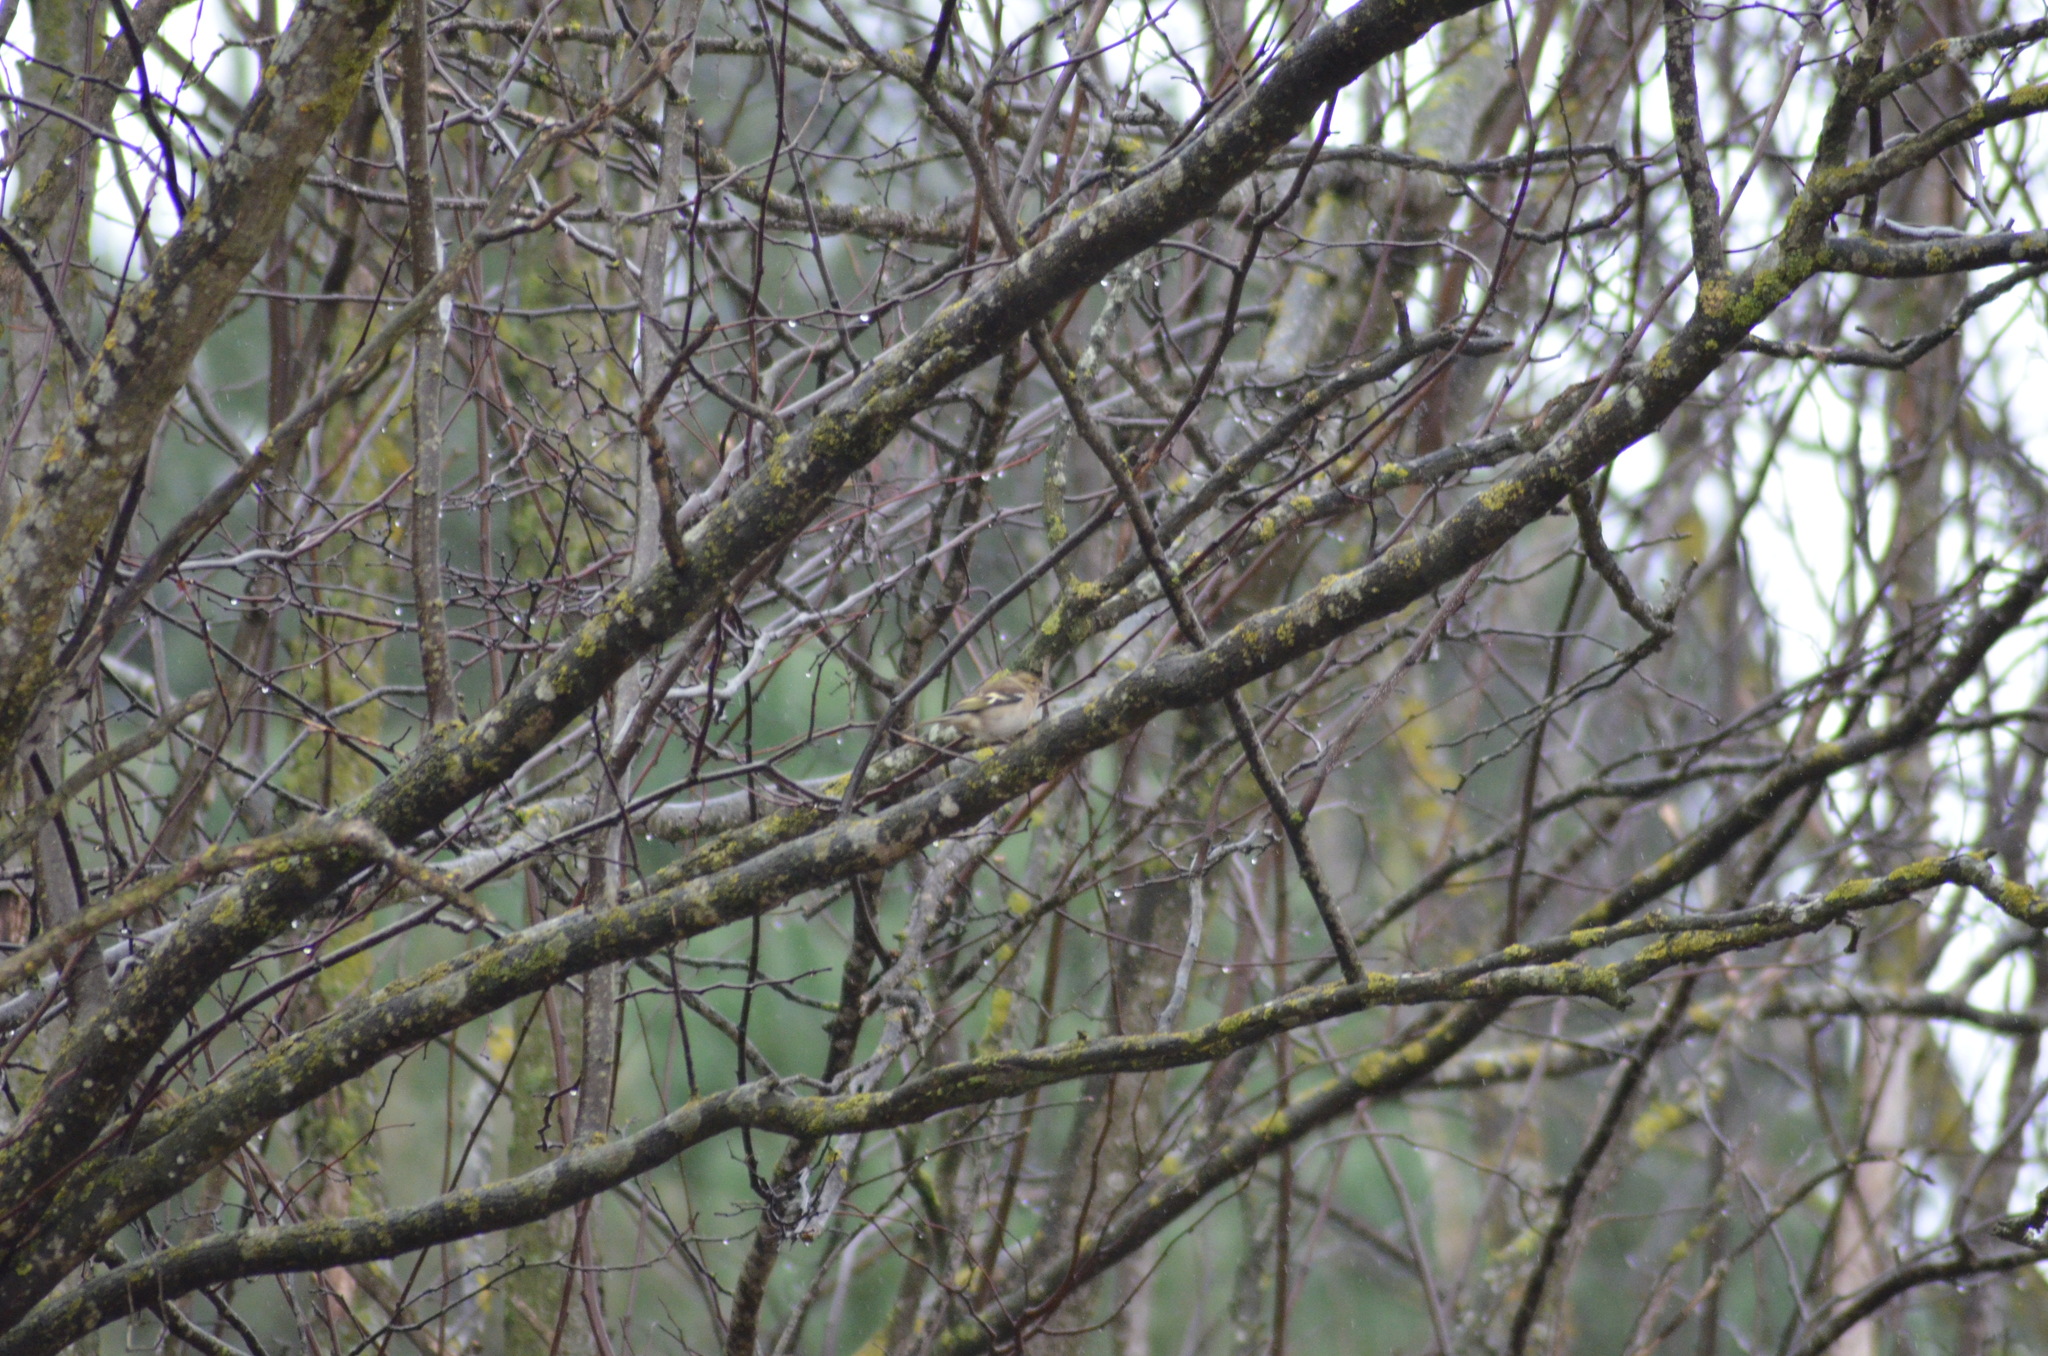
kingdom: Animalia
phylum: Chordata
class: Aves
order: Passeriformes
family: Fringillidae
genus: Fringilla
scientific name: Fringilla coelebs
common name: Common chaffinch
